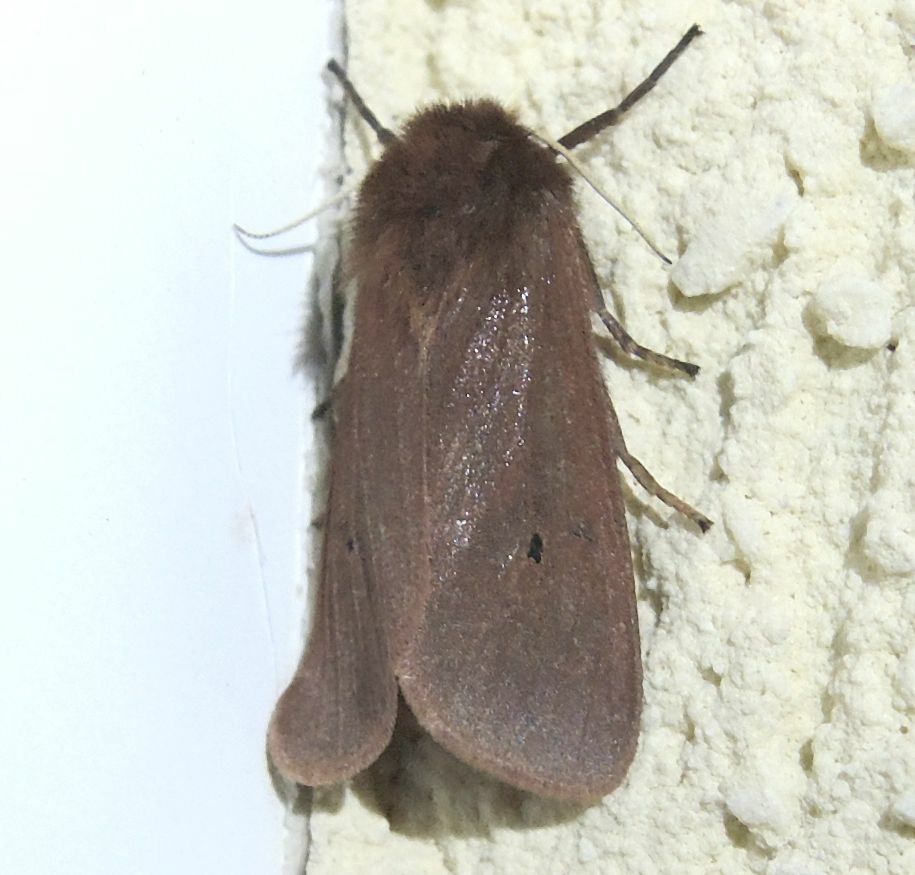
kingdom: Animalia
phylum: Arthropoda
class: Insecta
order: Lepidoptera
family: Erebidae
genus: Phragmatobia
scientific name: Phragmatobia fuliginosa
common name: Ruby tiger
